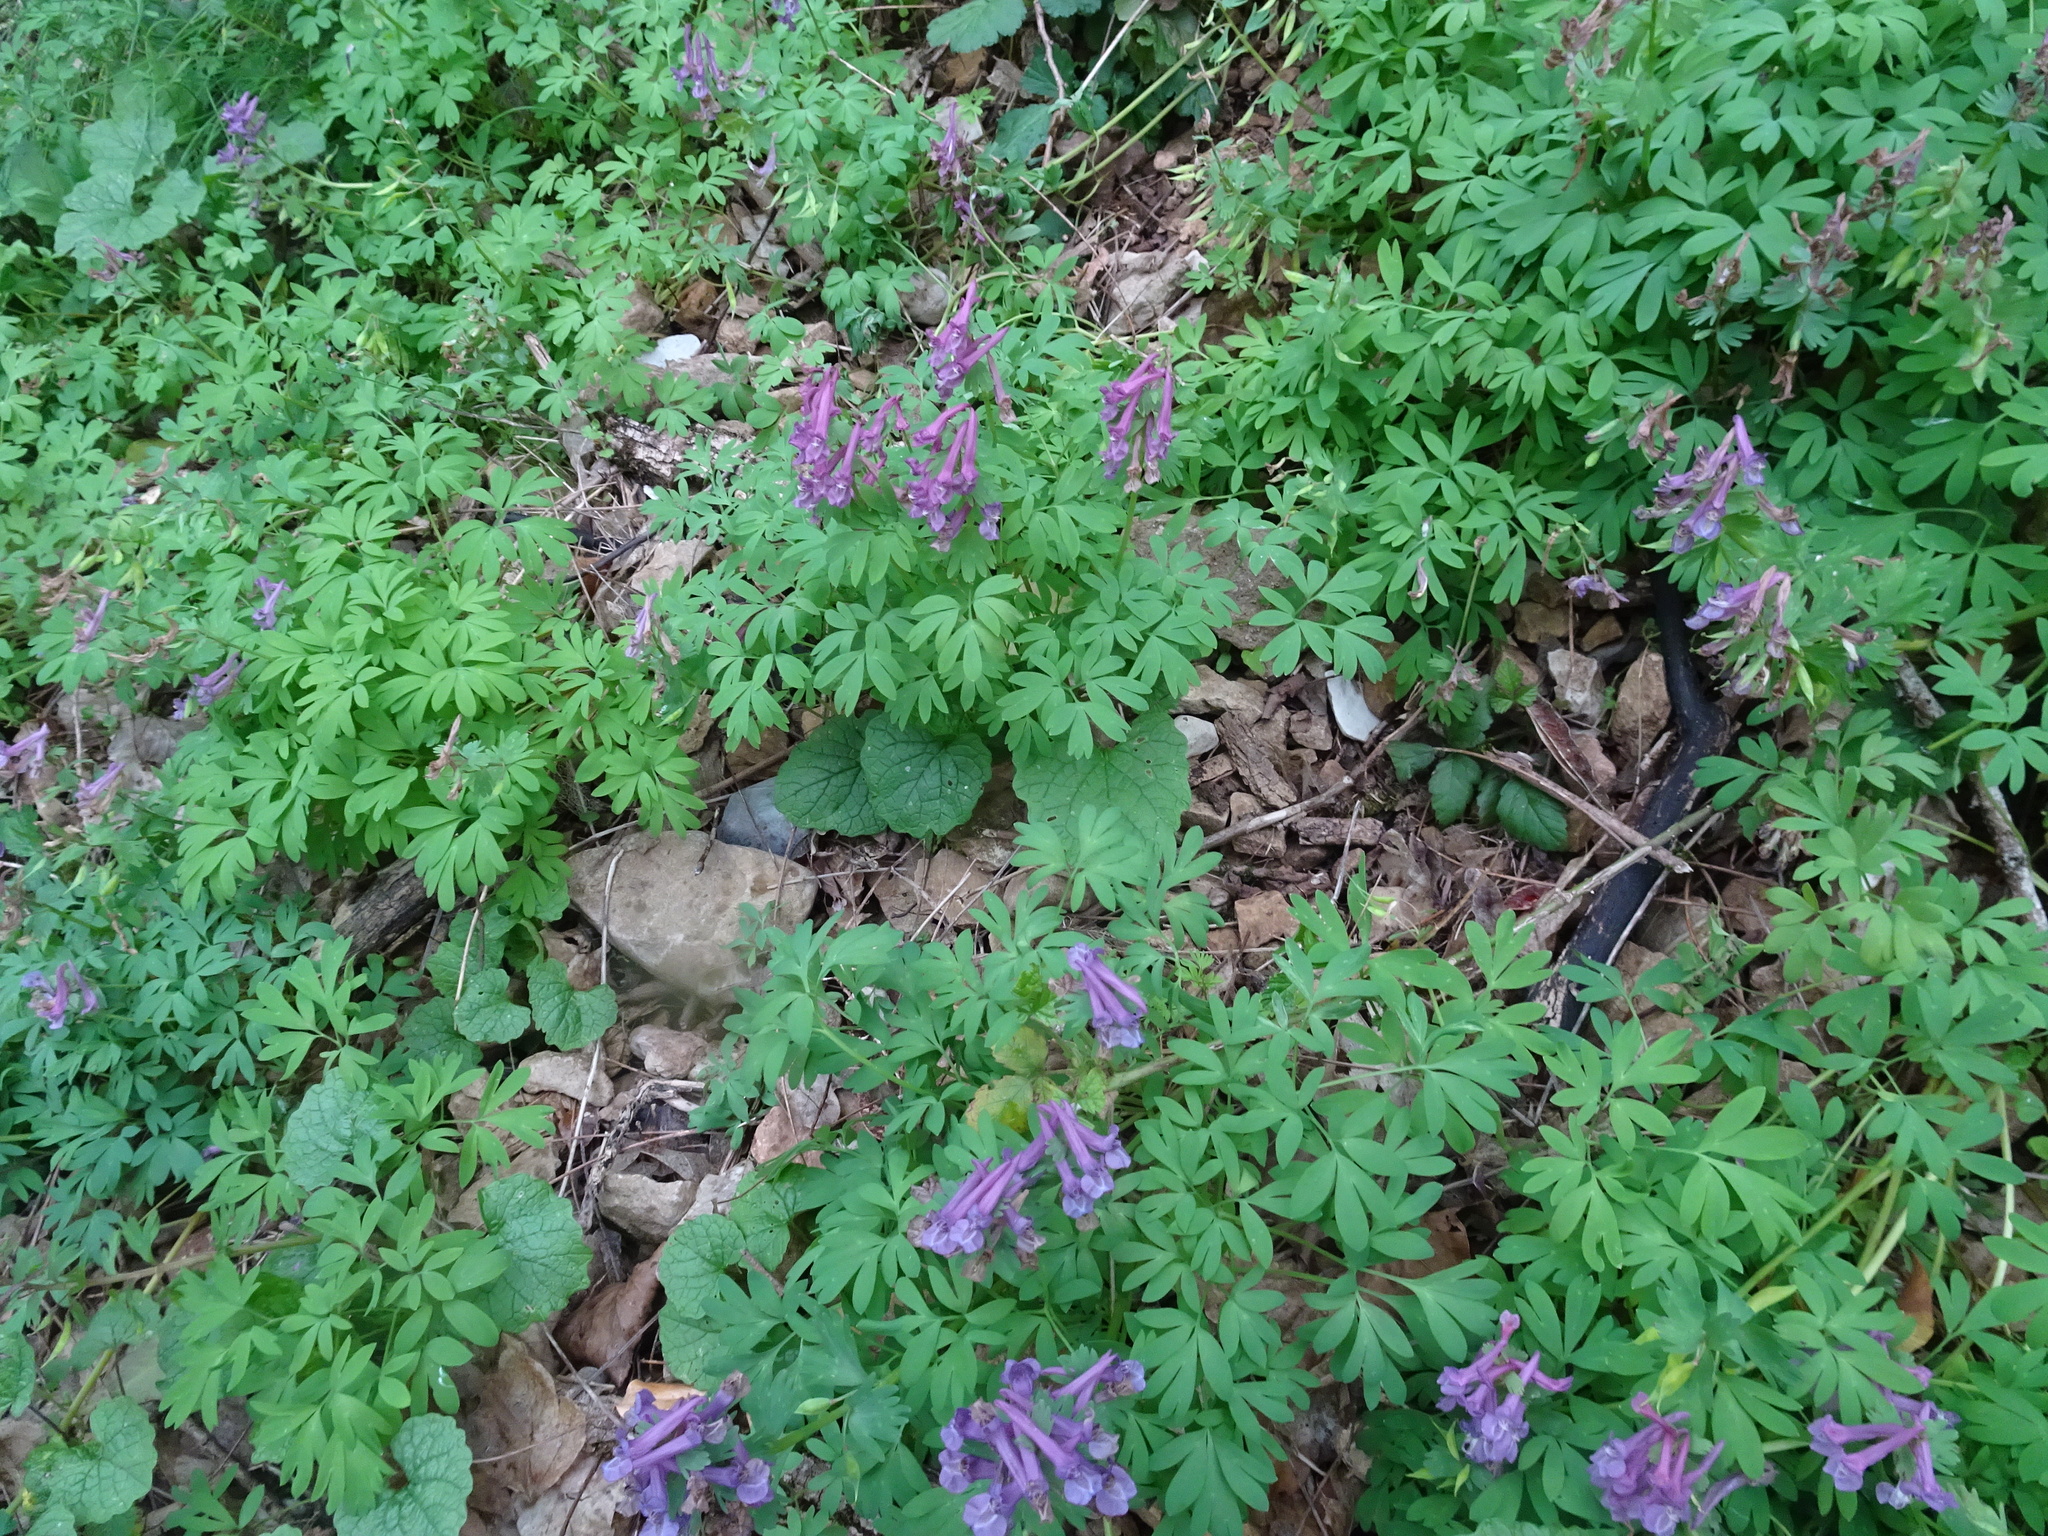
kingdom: Plantae
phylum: Tracheophyta
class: Magnoliopsida
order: Ranunculales
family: Papaveraceae
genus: Corydalis
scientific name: Corydalis solida
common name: Bird-in-a-bush
